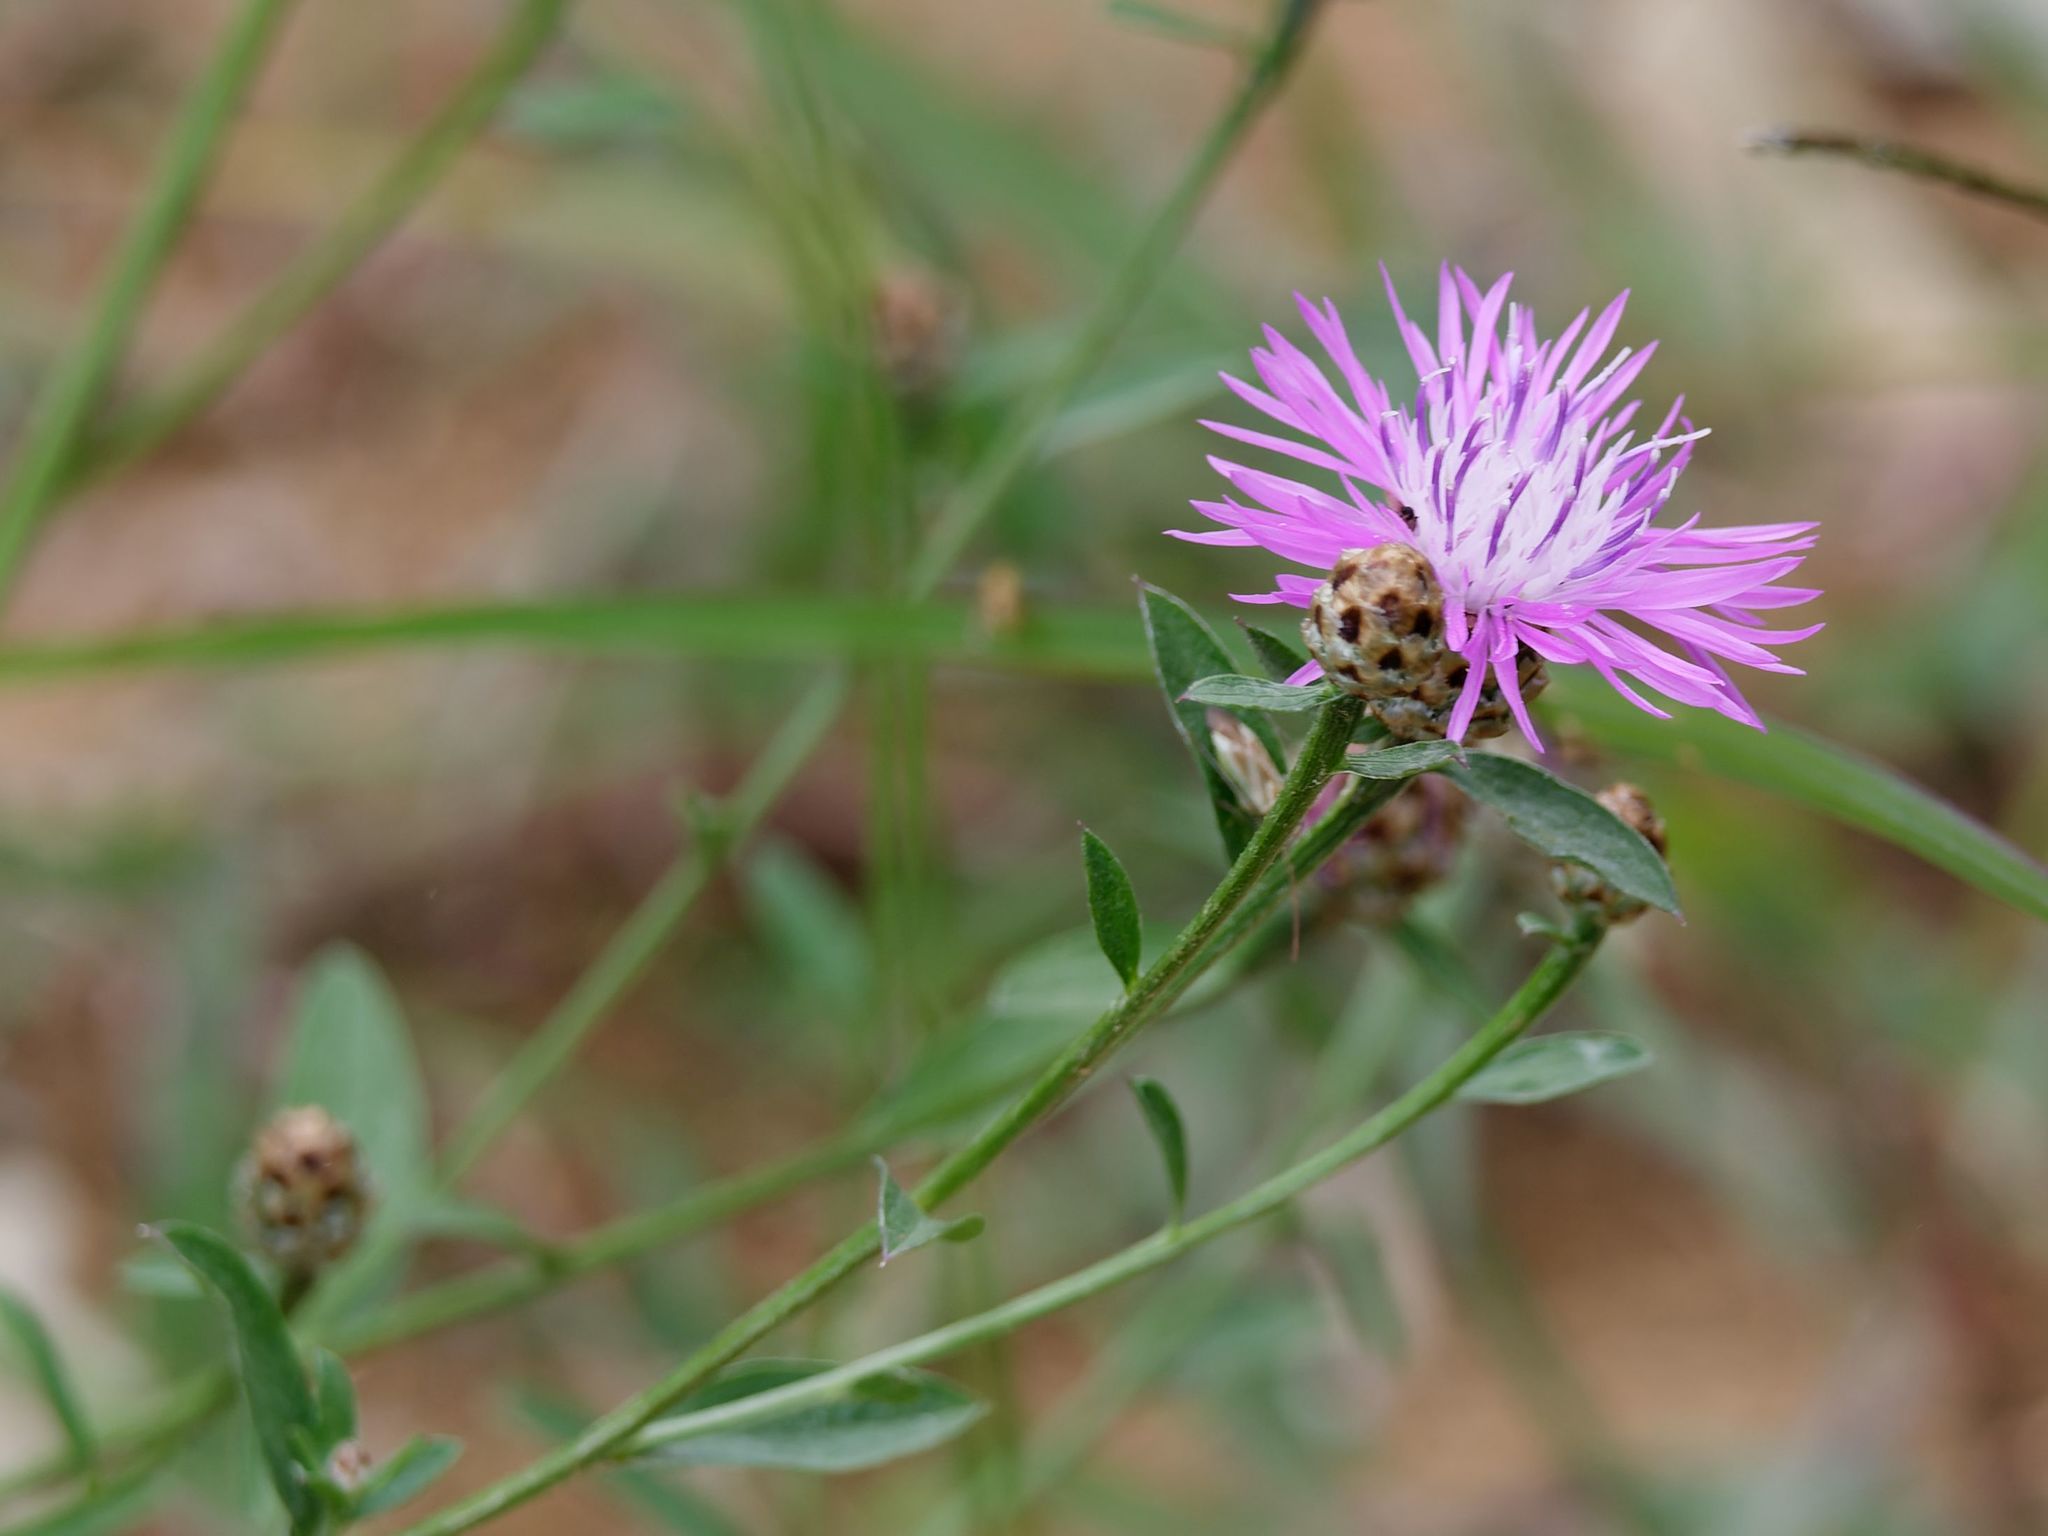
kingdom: Plantae
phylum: Tracheophyta
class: Magnoliopsida
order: Asterales
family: Asteraceae
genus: Centaurea
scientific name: Centaurea jacea
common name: Brown knapweed
